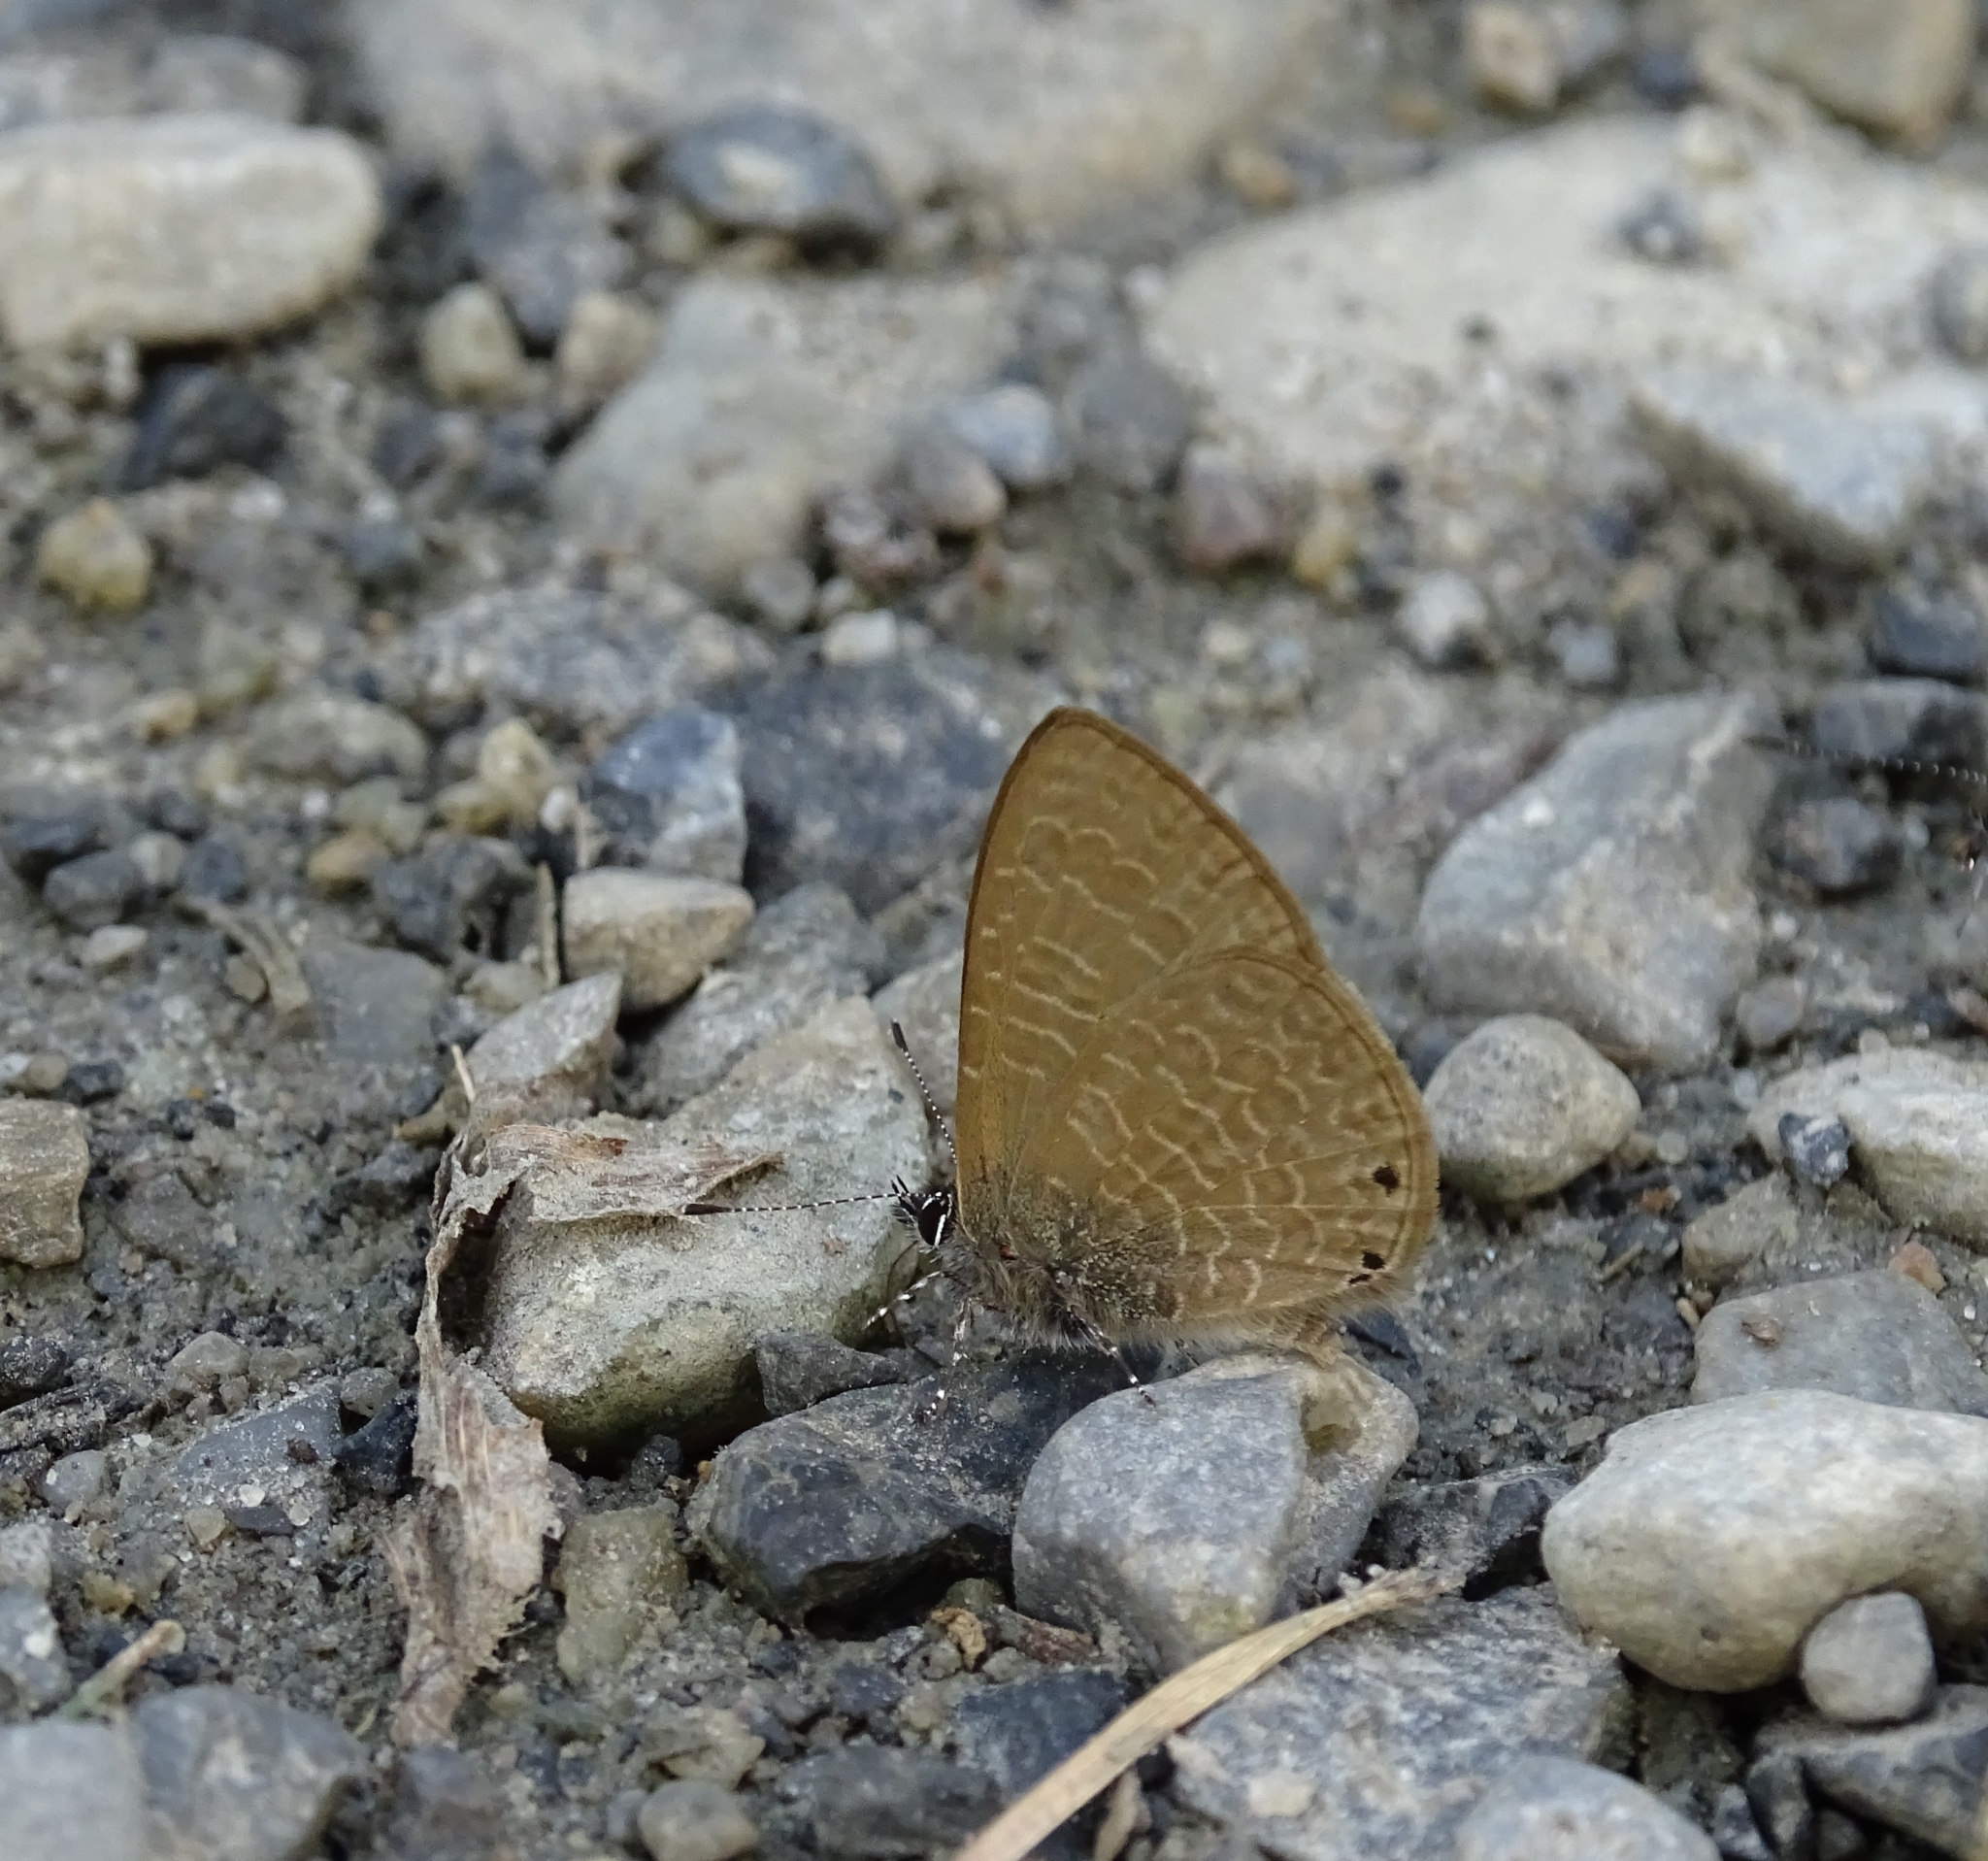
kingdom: Animalia
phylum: Arthropoda
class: Insecta
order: Lepidoptera
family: Lycaenidae
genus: Petrelaea
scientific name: Petrelaea dana
